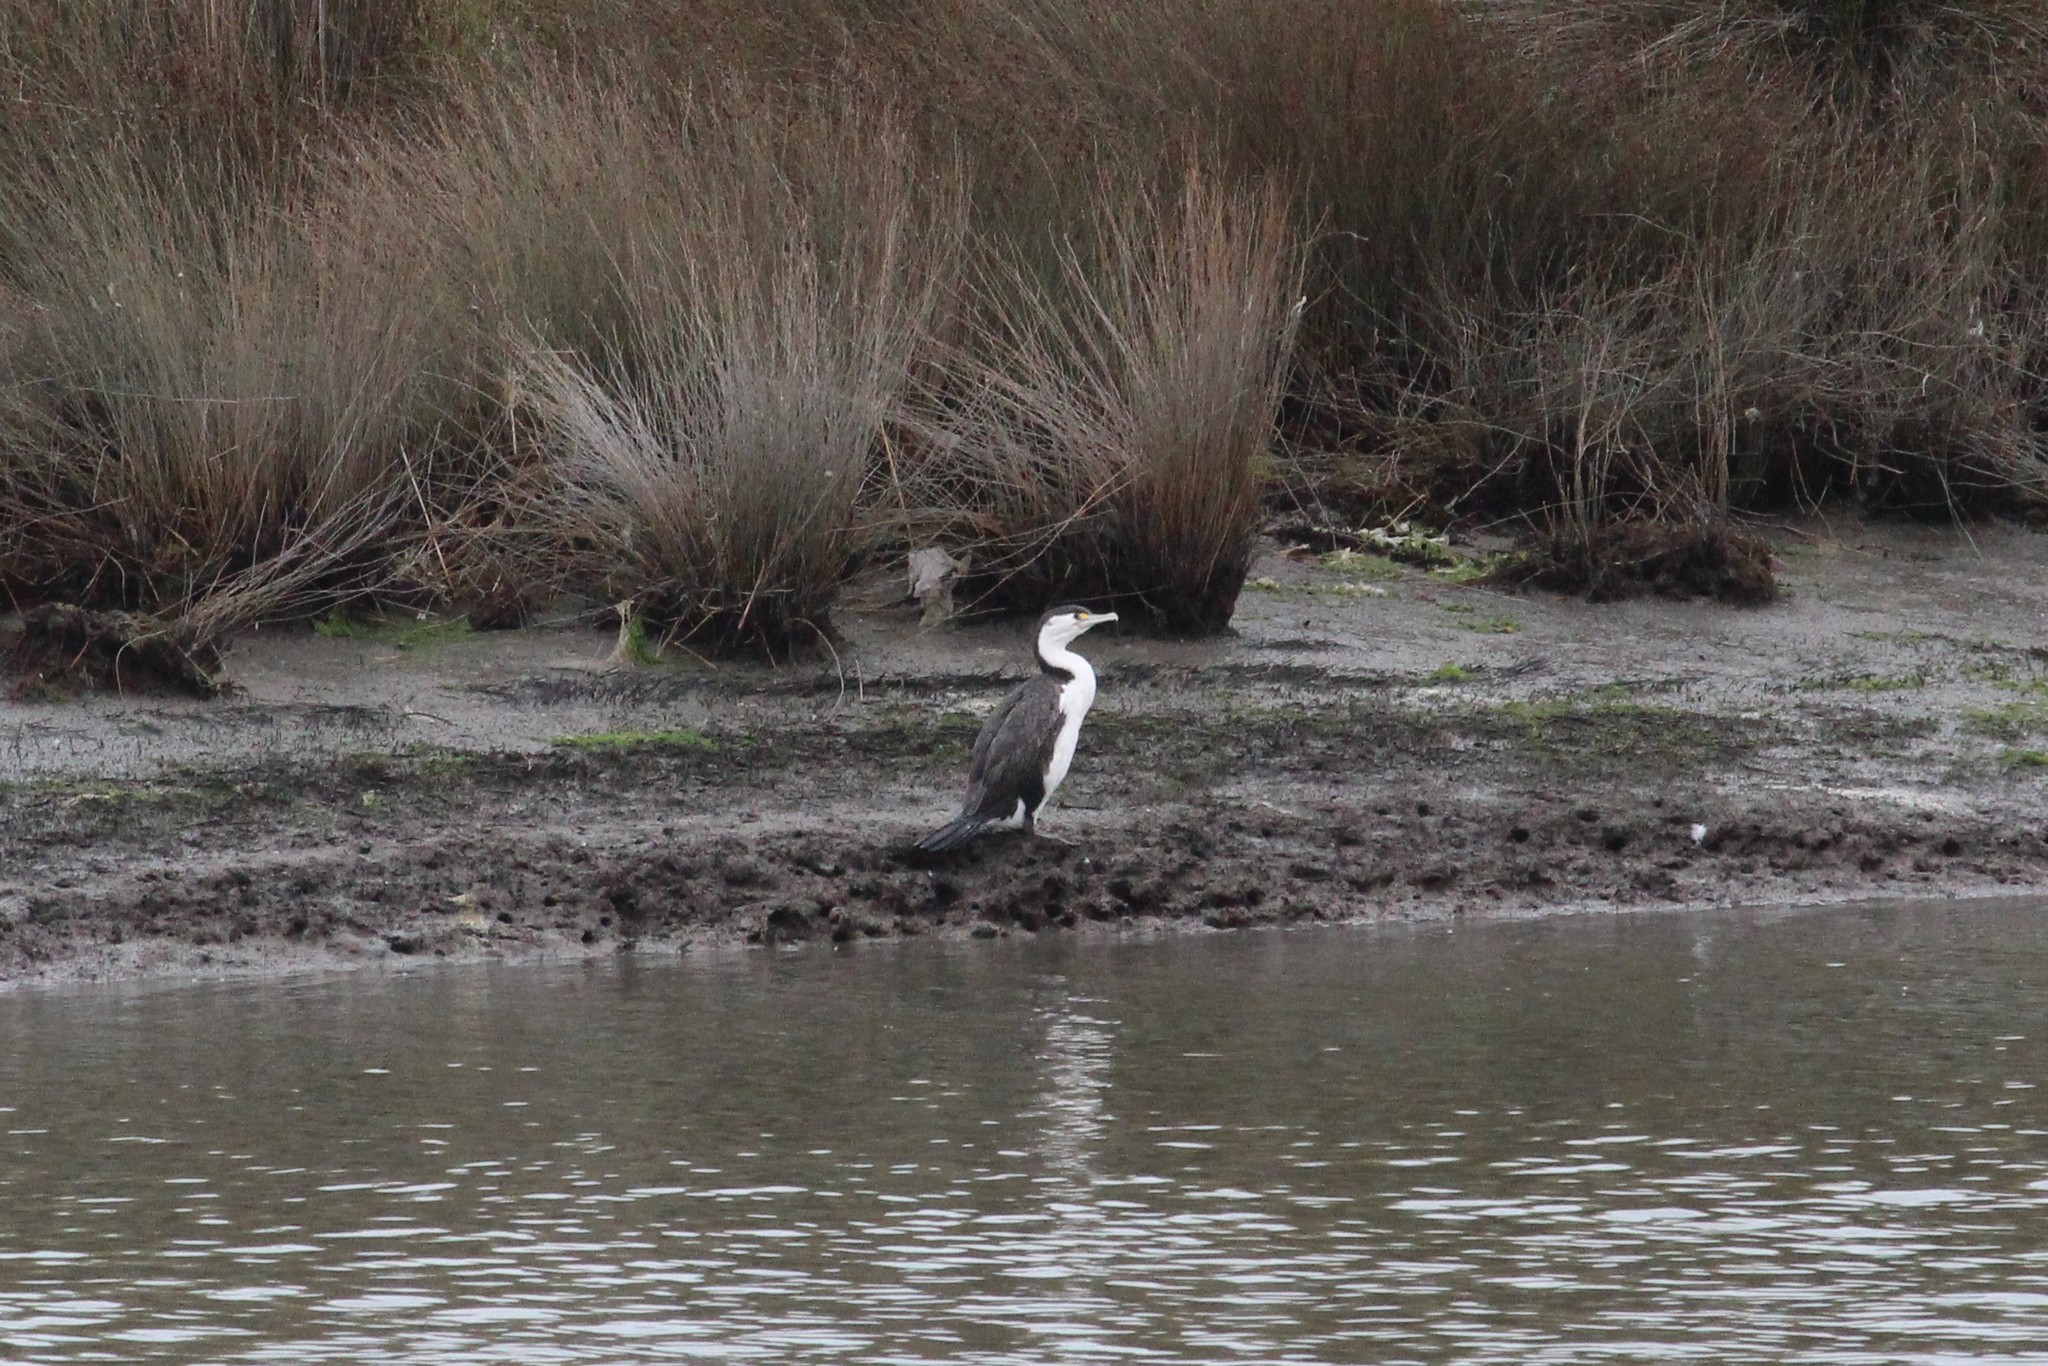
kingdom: Animalia
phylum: Chordata
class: Aves
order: Suliformes
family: Phalacrocoracidae
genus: Phalacrocorax
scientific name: Phalacrocorax varius
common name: Pied cormorant
